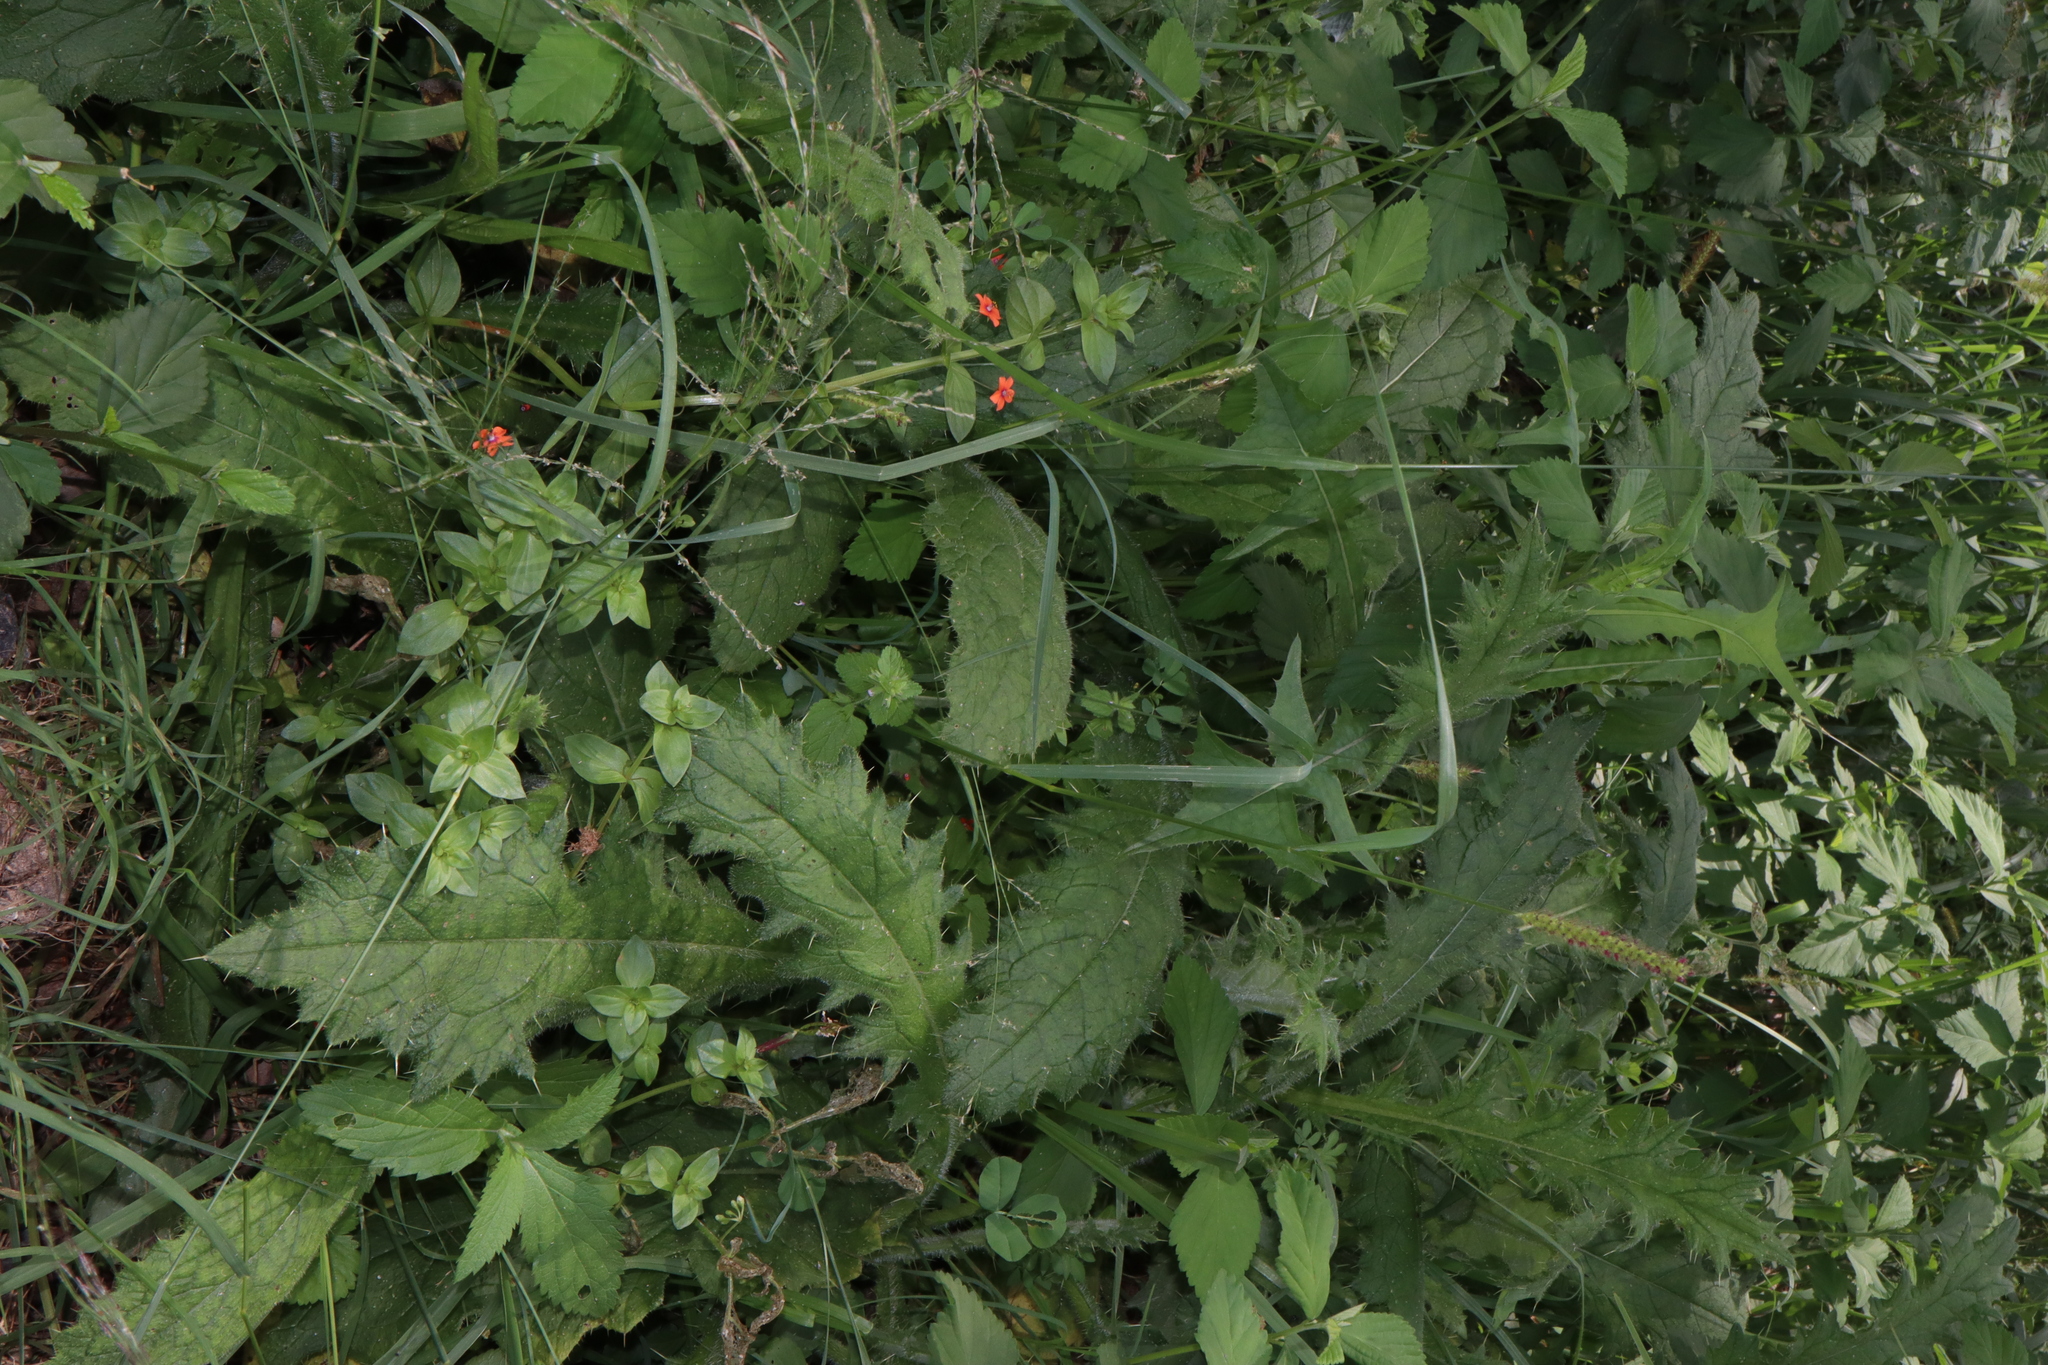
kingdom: Plantae
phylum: Tracheophyta
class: Magnoliopsida
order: Asterales
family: Asteraceae
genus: Cirsium
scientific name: Cirsium vulgare
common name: Bull thistle
